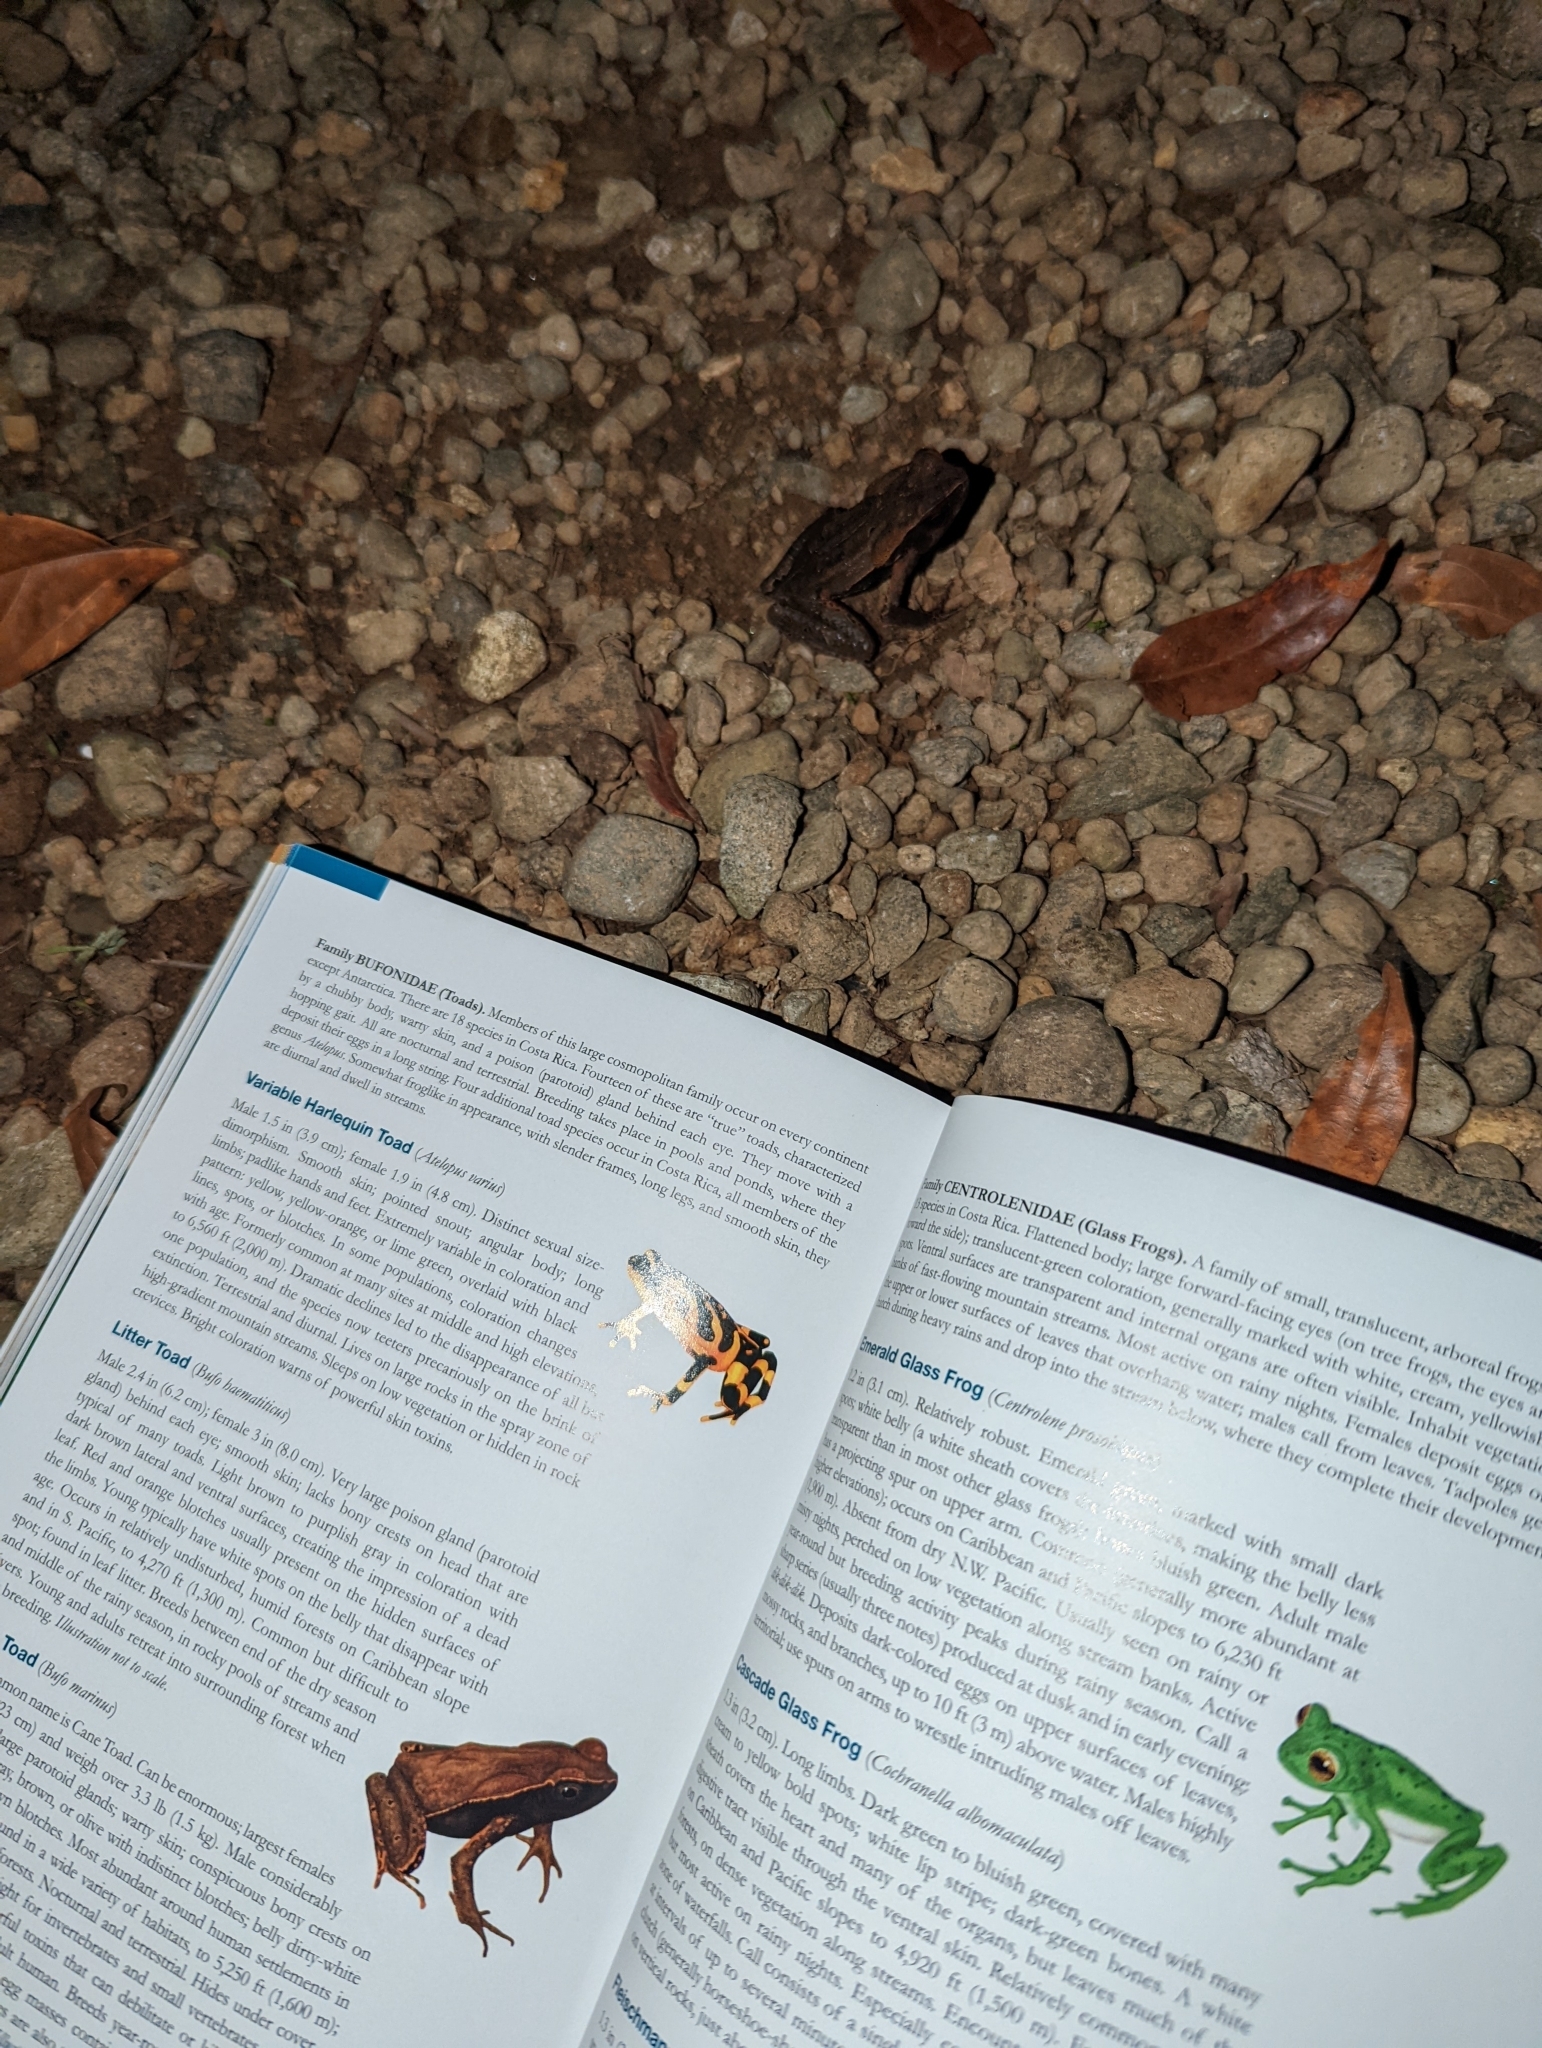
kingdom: Animalia
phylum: Chordata
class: Amphibia
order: Anura
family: Bufonidae
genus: Rhaebo
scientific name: Rhaebo haematiticus
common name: Truando toad
